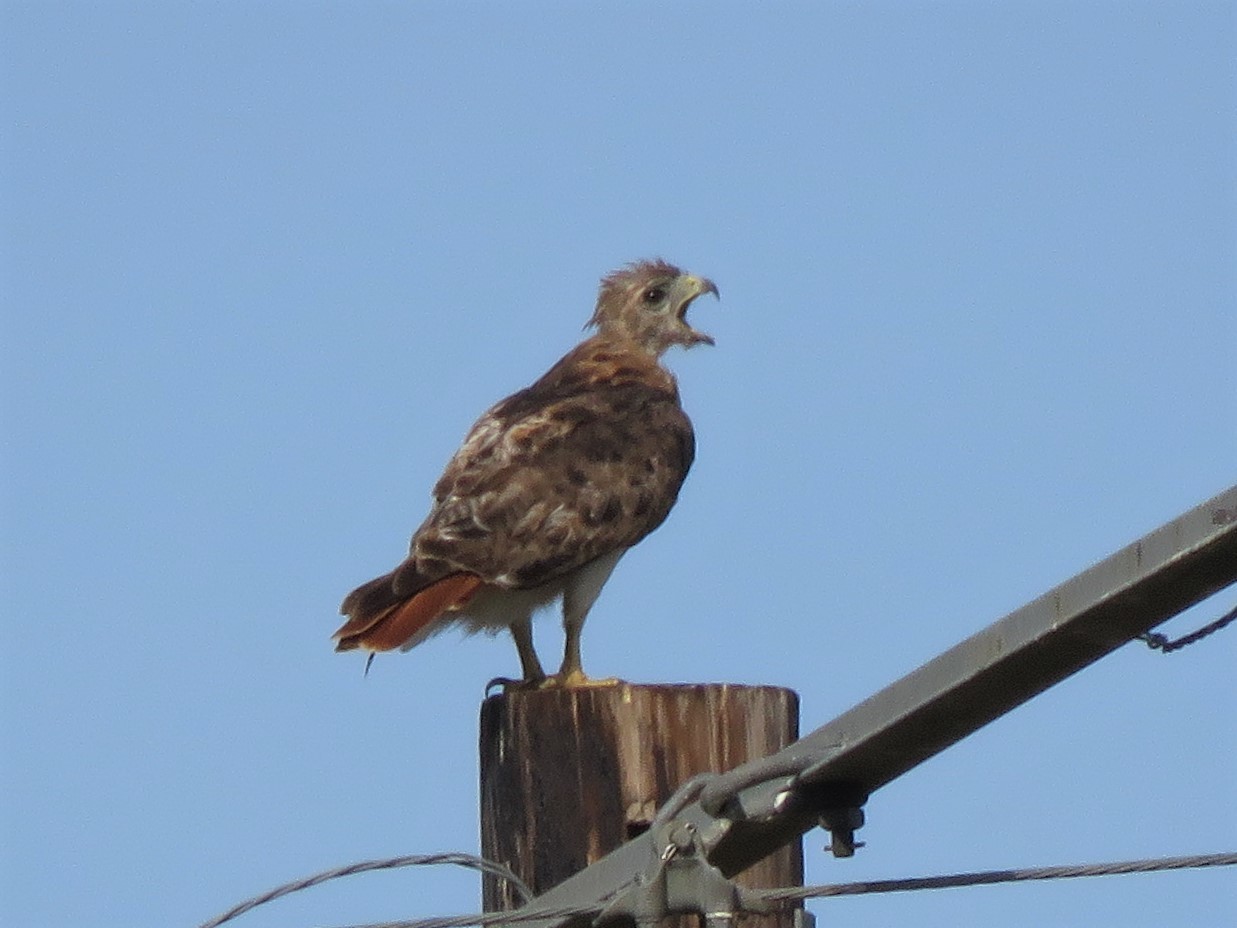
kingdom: Animalia
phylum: Chordata
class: Aves
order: Accipitriformes
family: Accipitridae
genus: Buteo
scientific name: Buteo jamaicensis
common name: Red-tailed hawk
